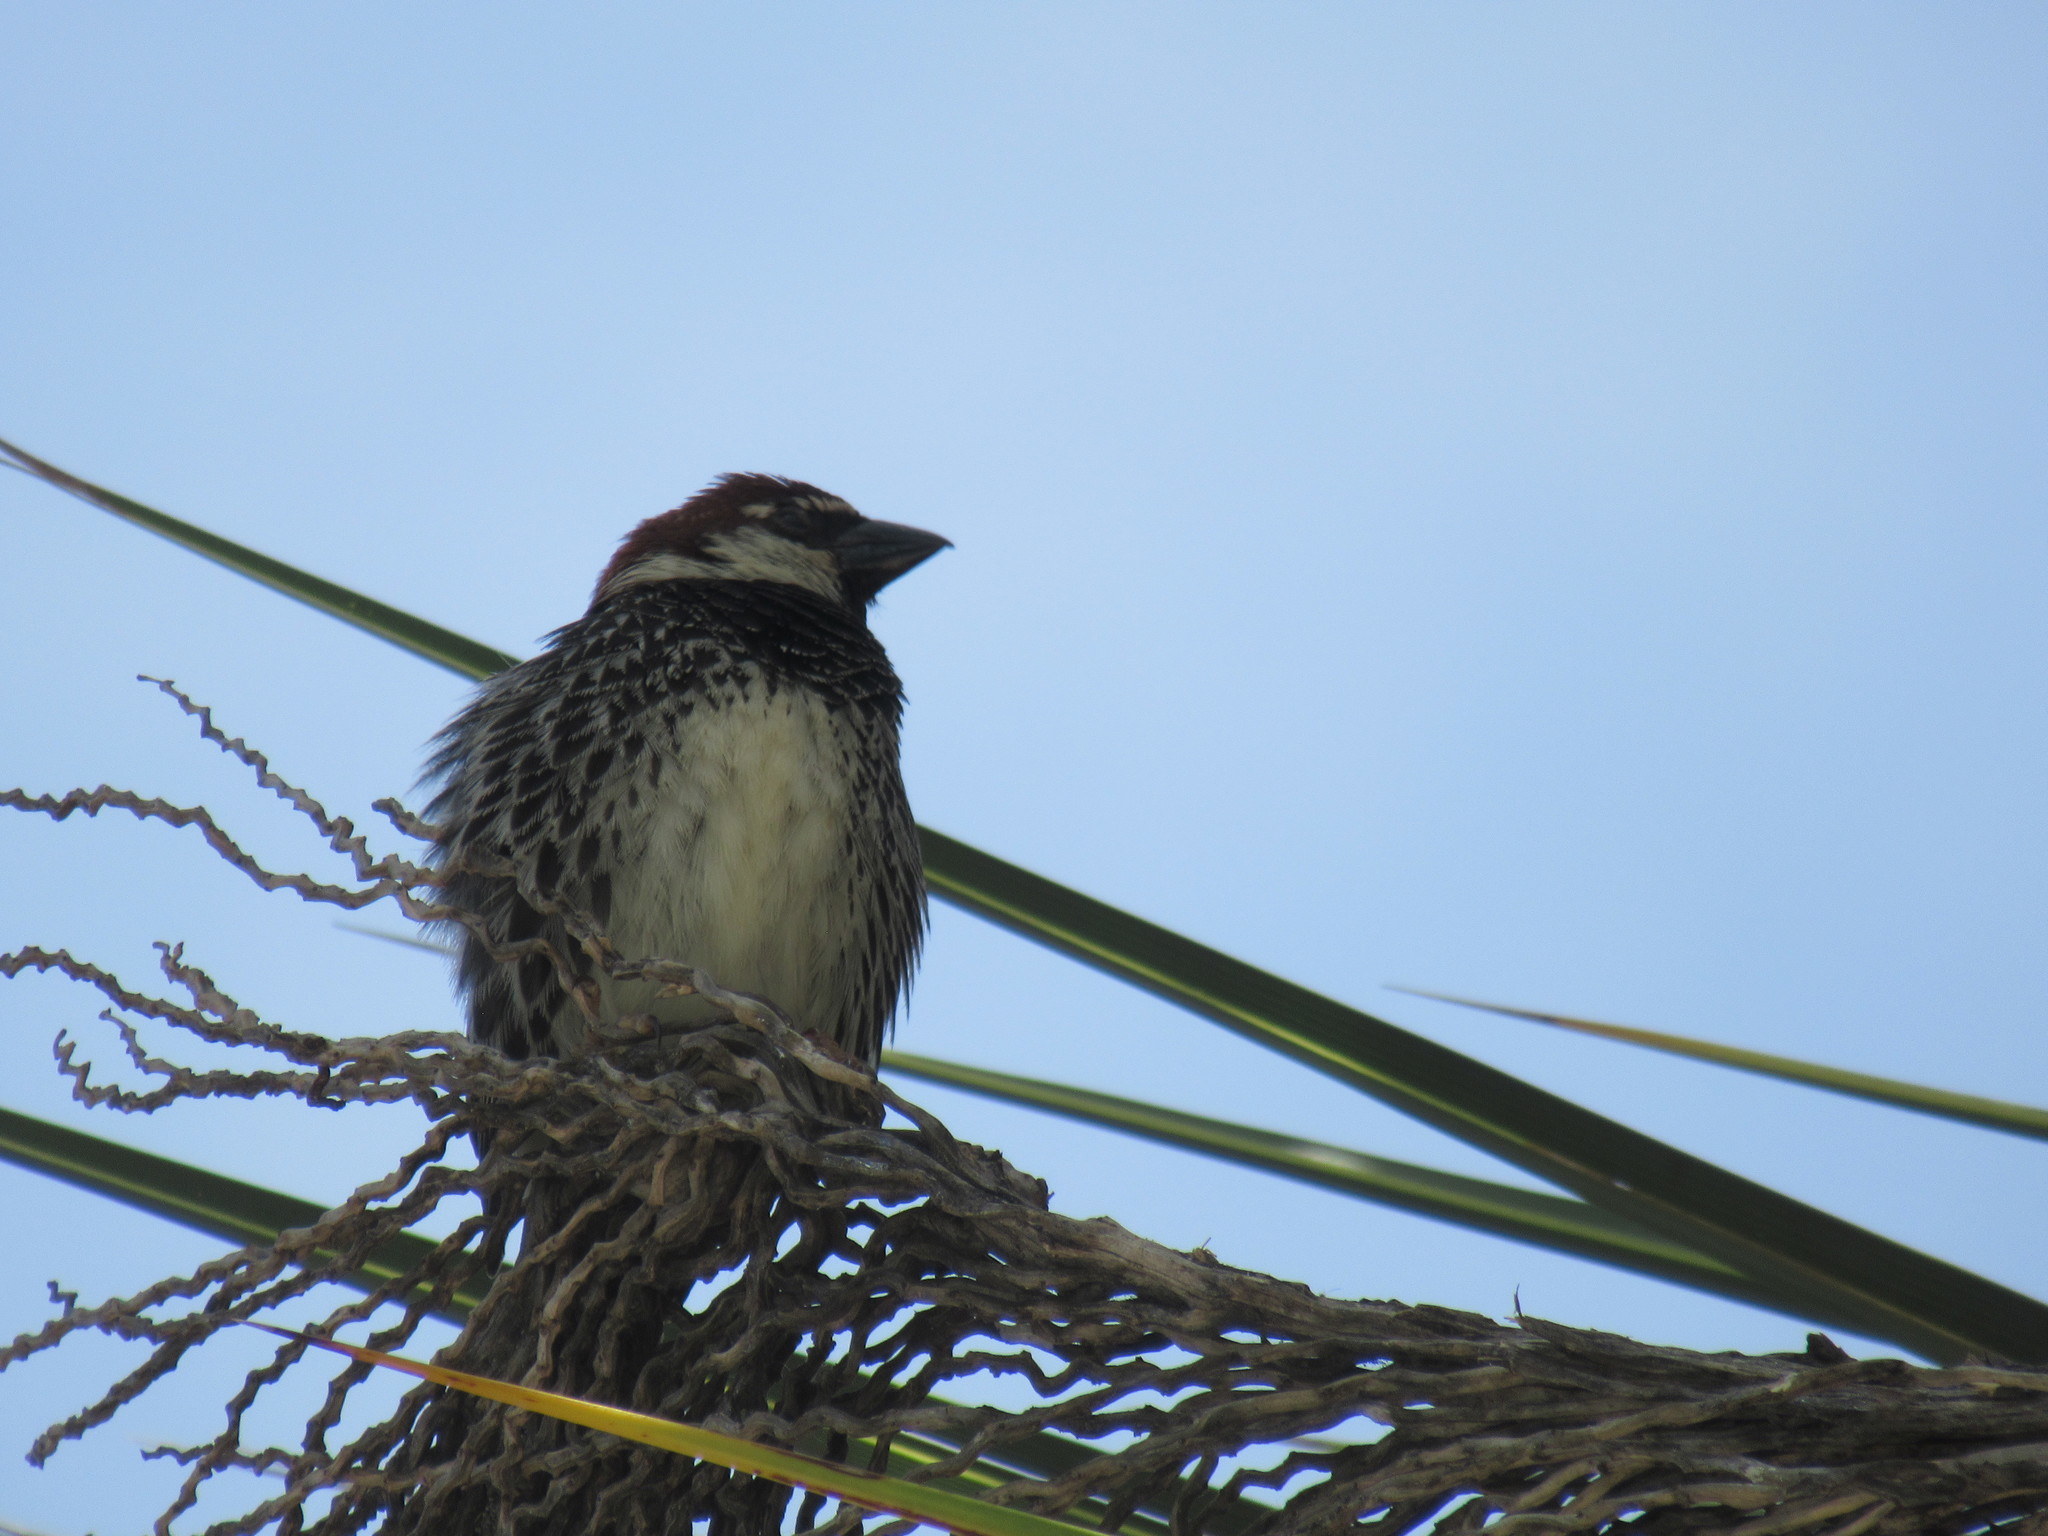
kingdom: Animalia
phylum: Chordata
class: Aves
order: Passeriformes
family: Passeridae
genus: Passer
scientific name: Passer hispaniolensis
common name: Spanish sparrow
